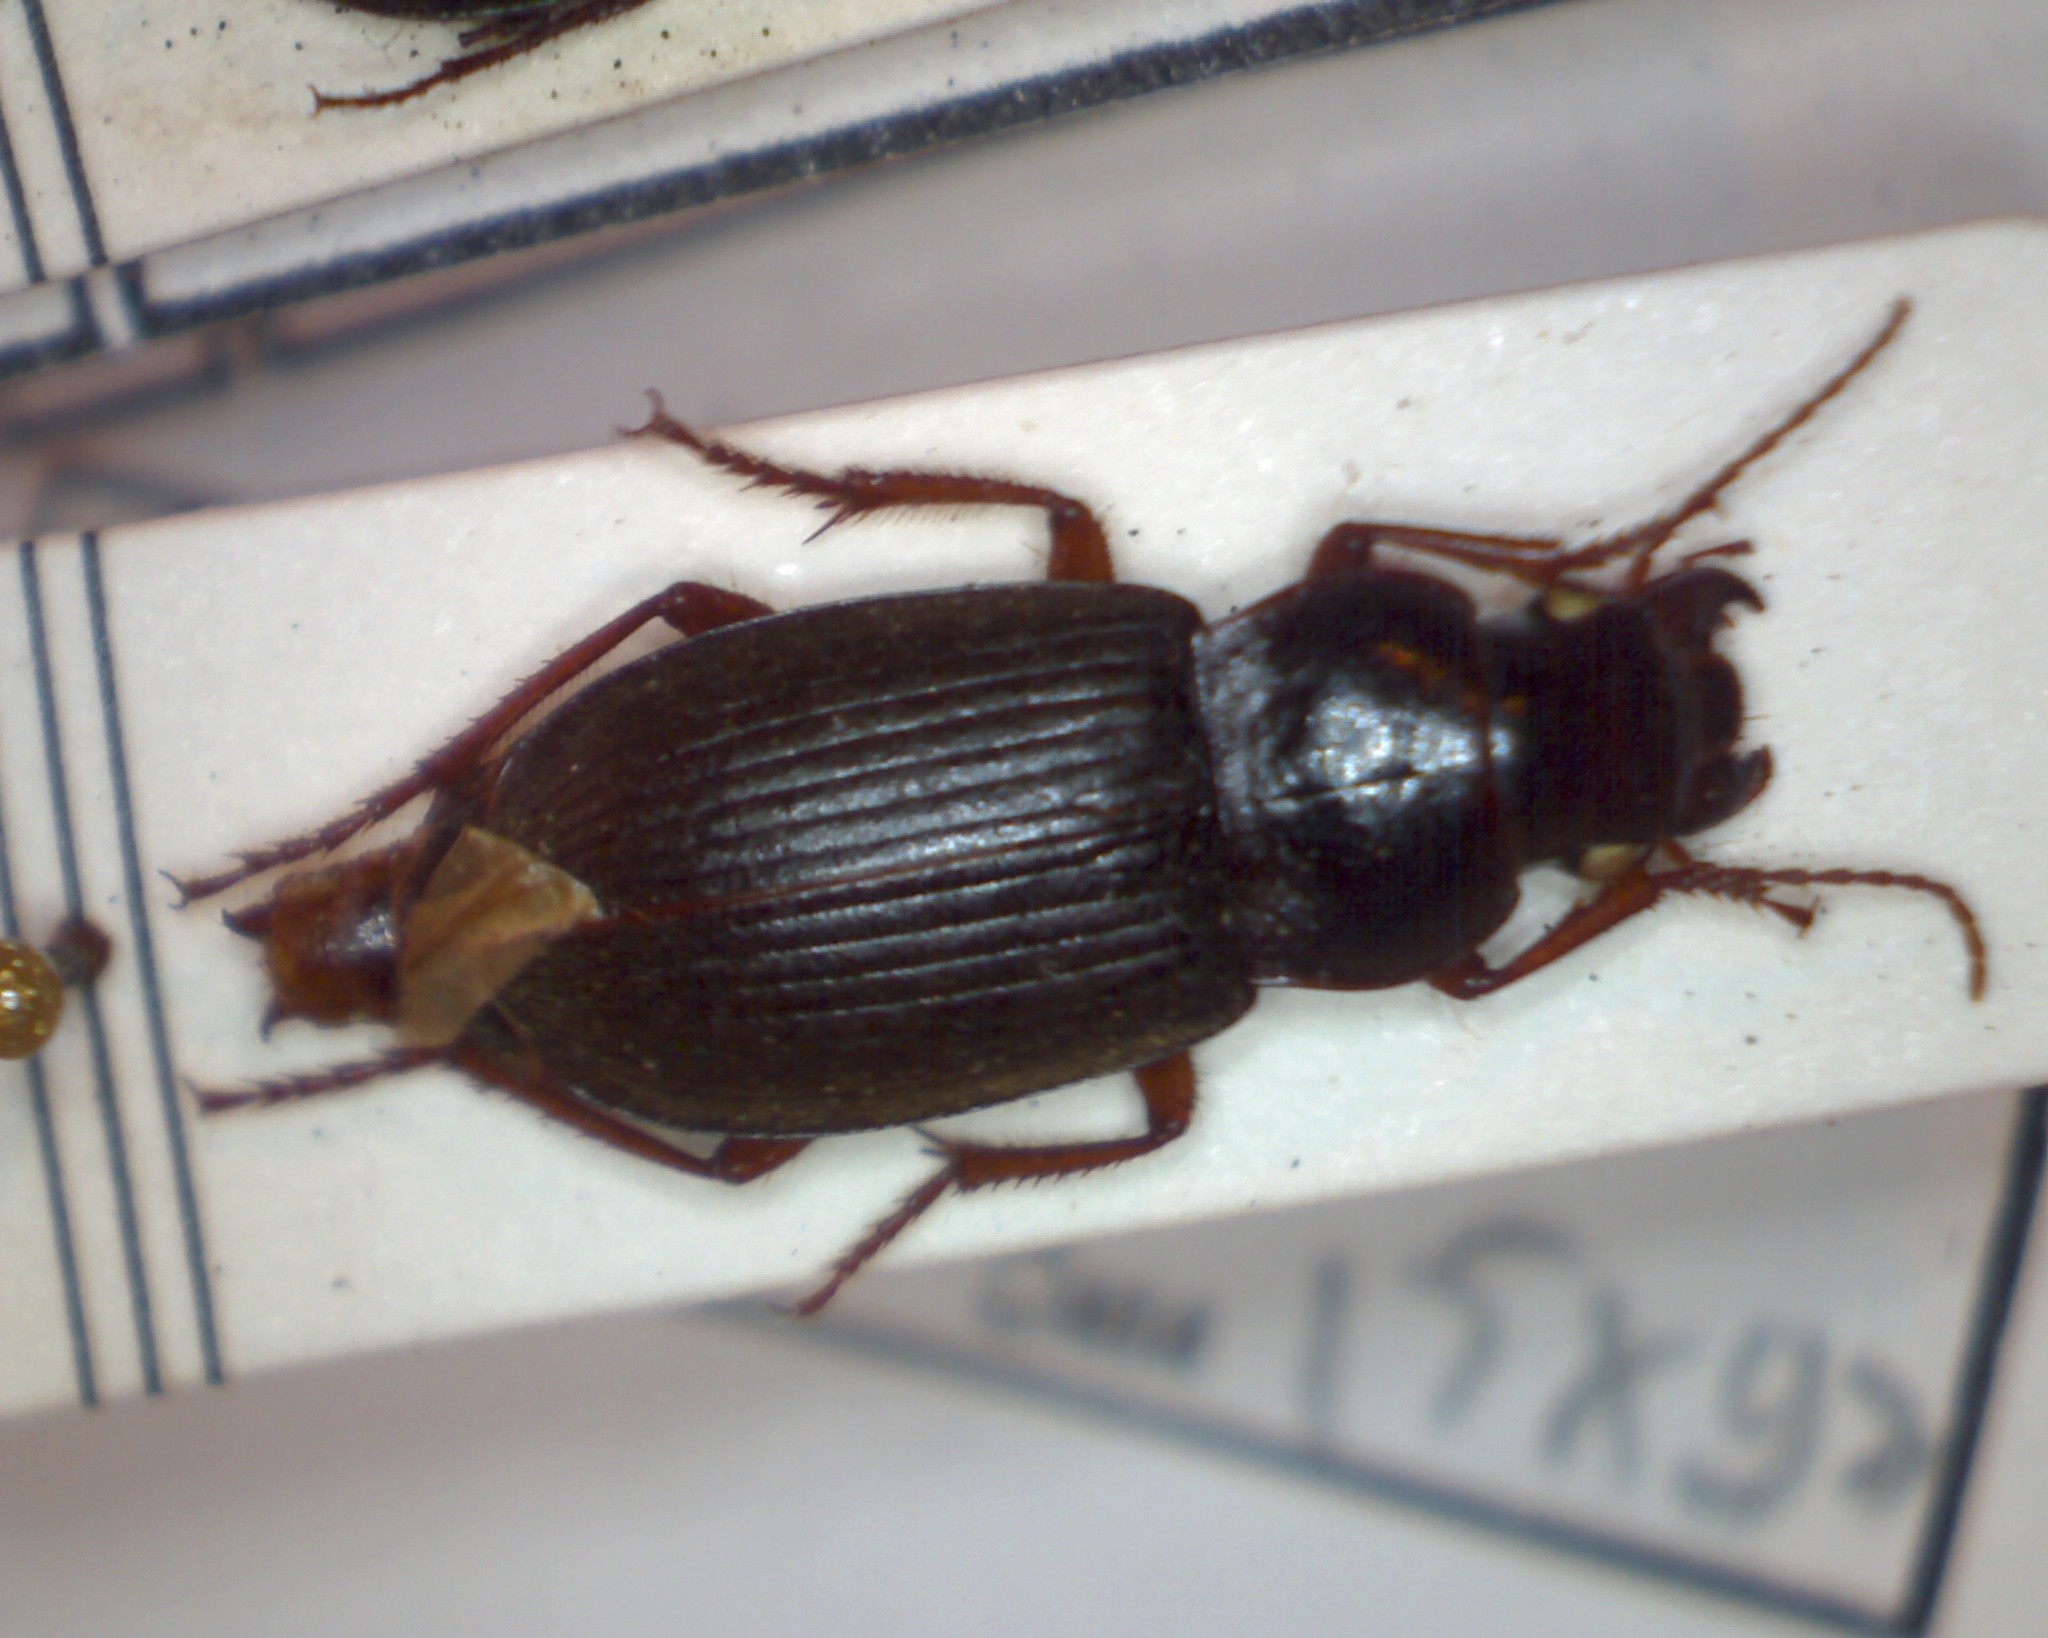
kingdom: Animalia
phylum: Arthropoda
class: Insecta
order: Coleoptera
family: Carabidae
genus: Harpalus
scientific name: Harpalus rufipes
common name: Strawberry harp ground beetle
